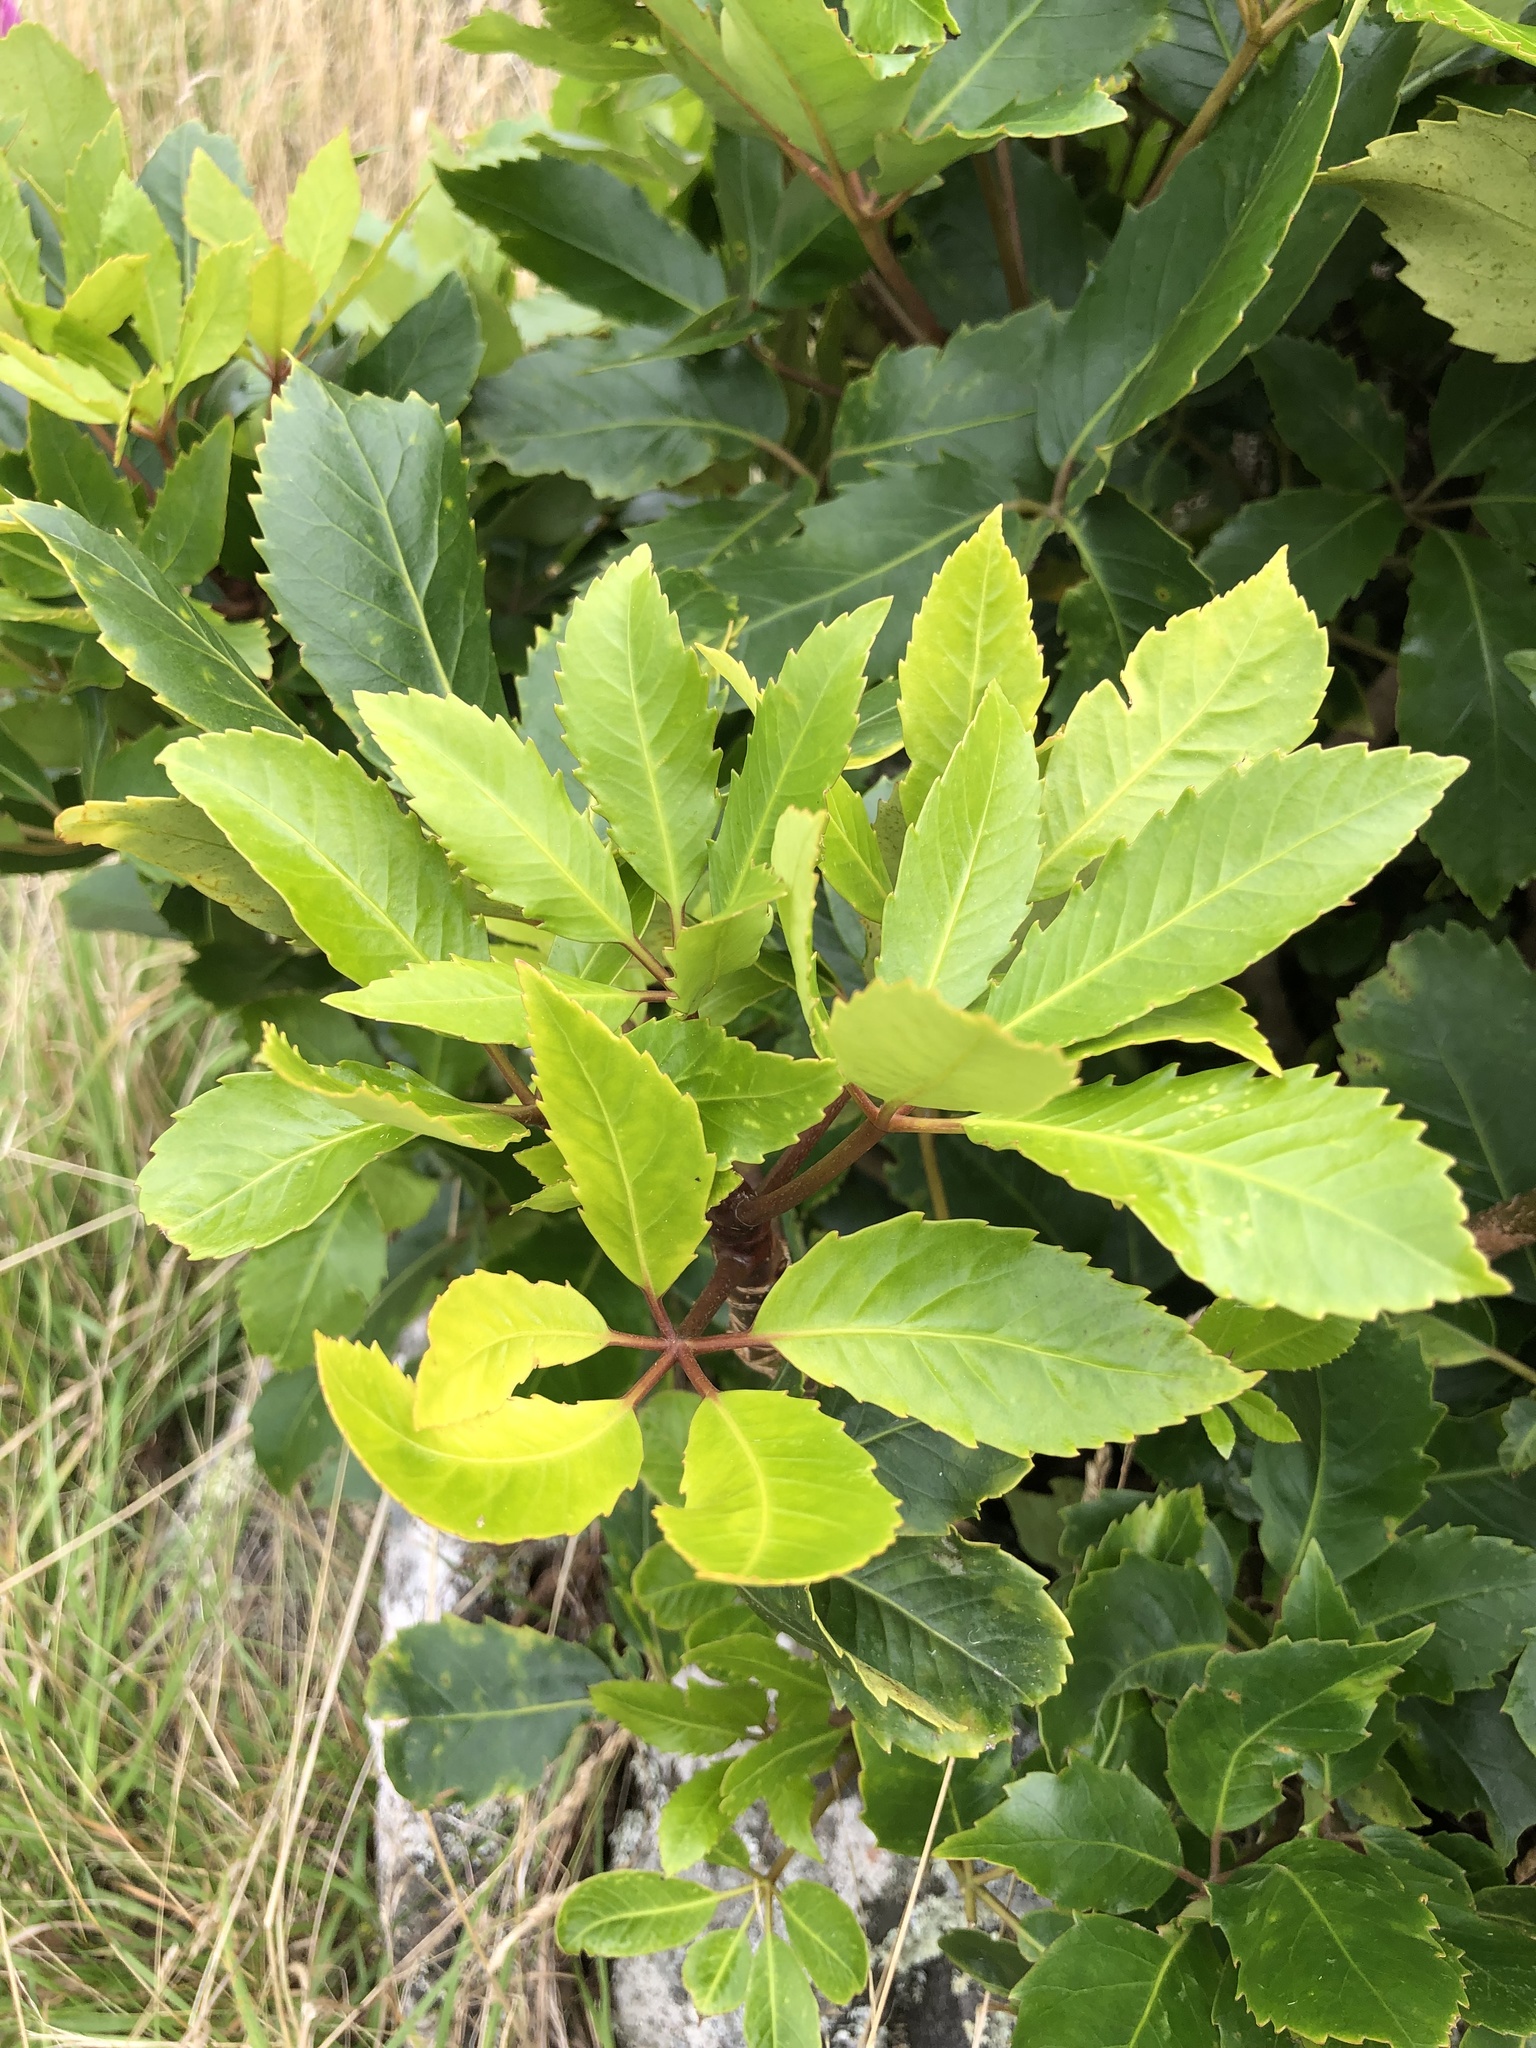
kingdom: Plantae
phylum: Tracheophyta
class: Magnoliopsida
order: Apiales
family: Araliaceae
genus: Neopanax
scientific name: Neopanax arboreus
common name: Five-fingers
